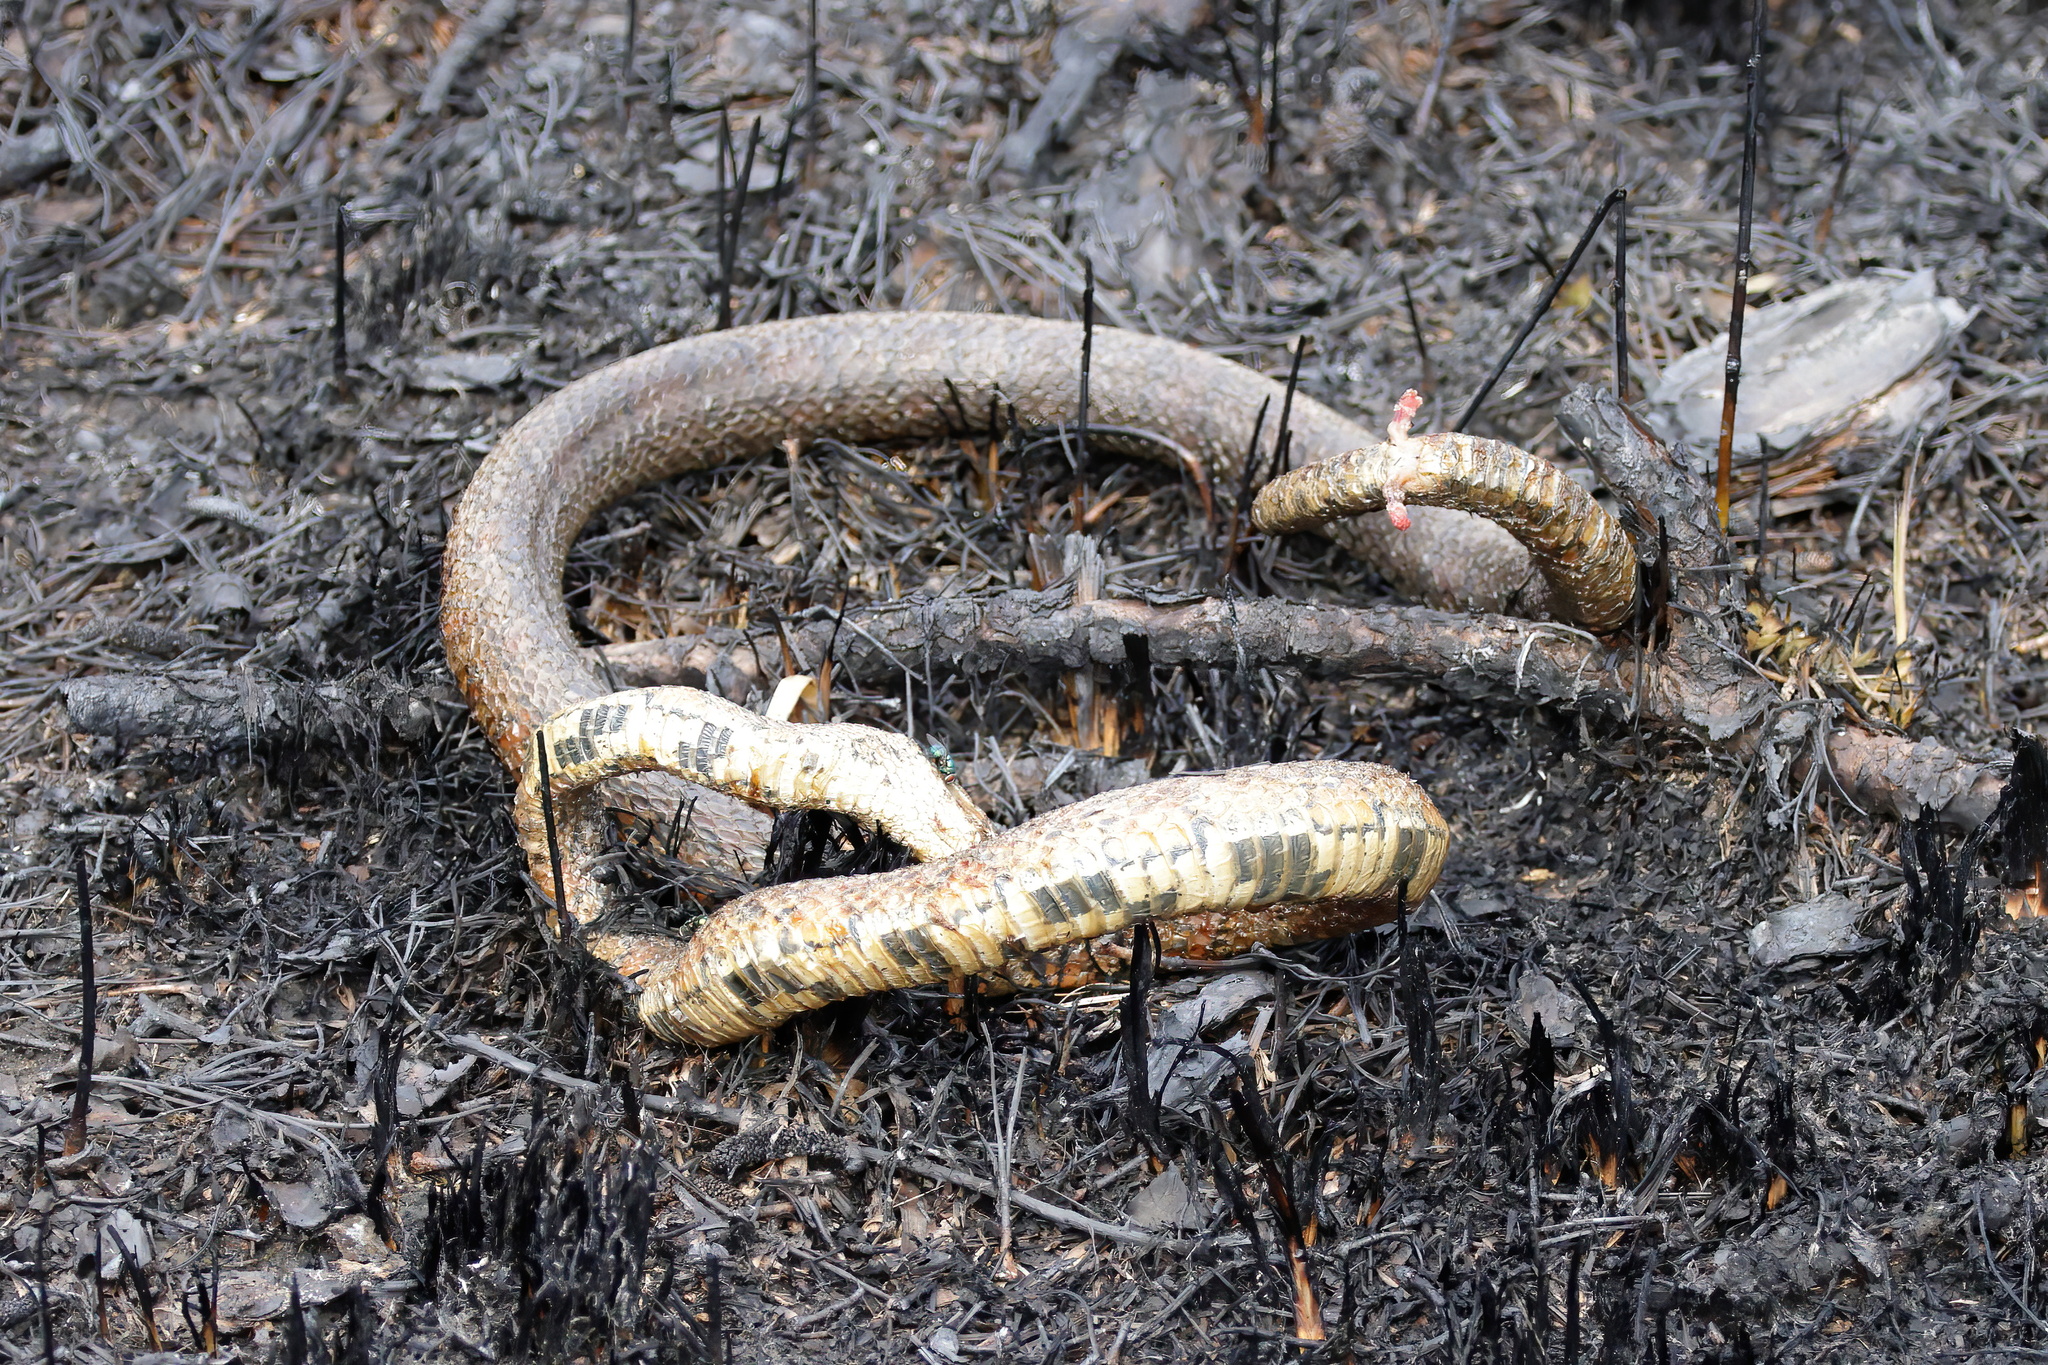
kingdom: Animalia
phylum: Chordata
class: Squamata
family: Colubridae
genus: Pantherophis
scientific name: Pantherophis guttatus
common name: Red cornsnake
